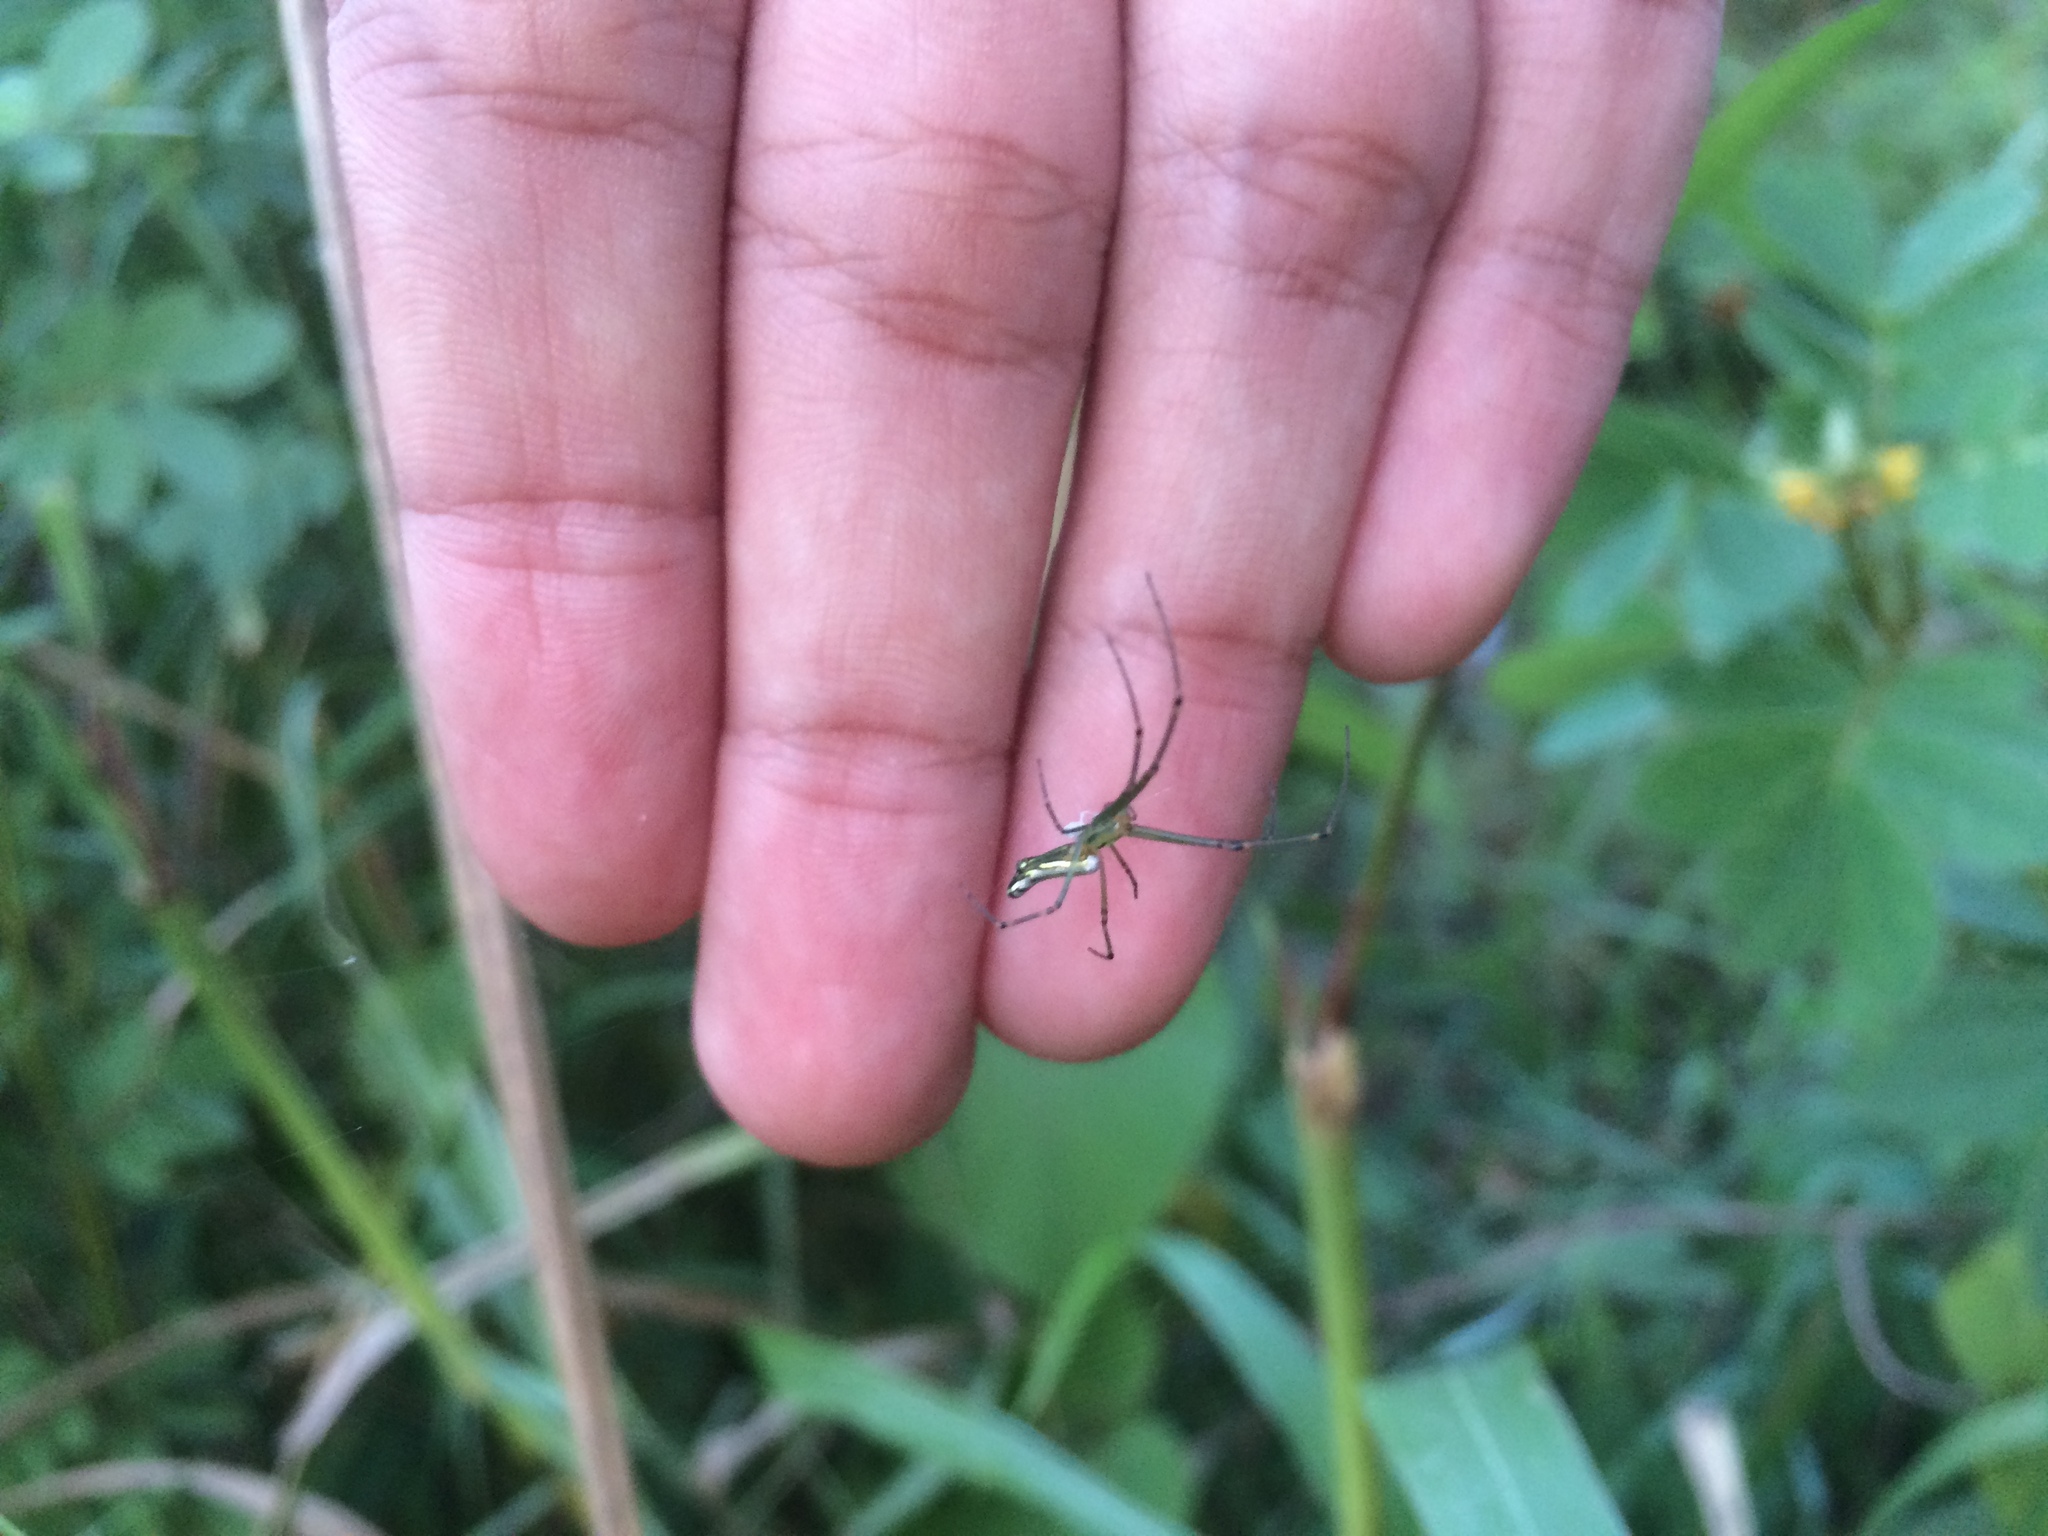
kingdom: Animalia
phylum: Arthropoda
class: Arachnida
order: Araneae
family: Tetragnathidae
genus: Leucauge
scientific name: Leucauge decorata
